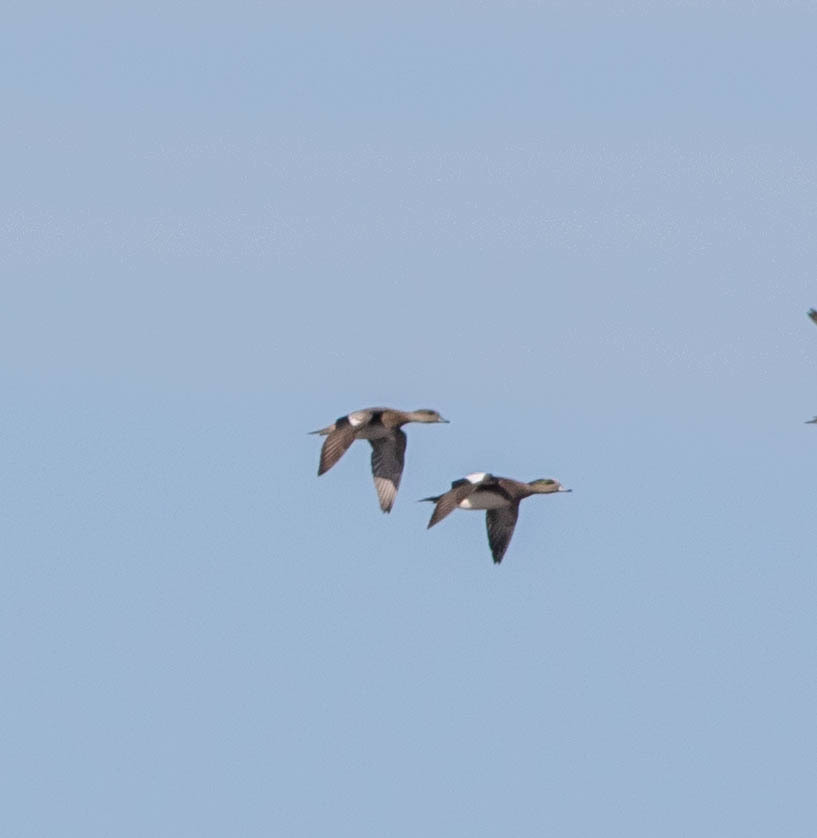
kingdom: Animalia
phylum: Chordata
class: Aves
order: Anseriformes
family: Anatidae
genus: Mareca
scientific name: Mareca americana
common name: American wigeon
